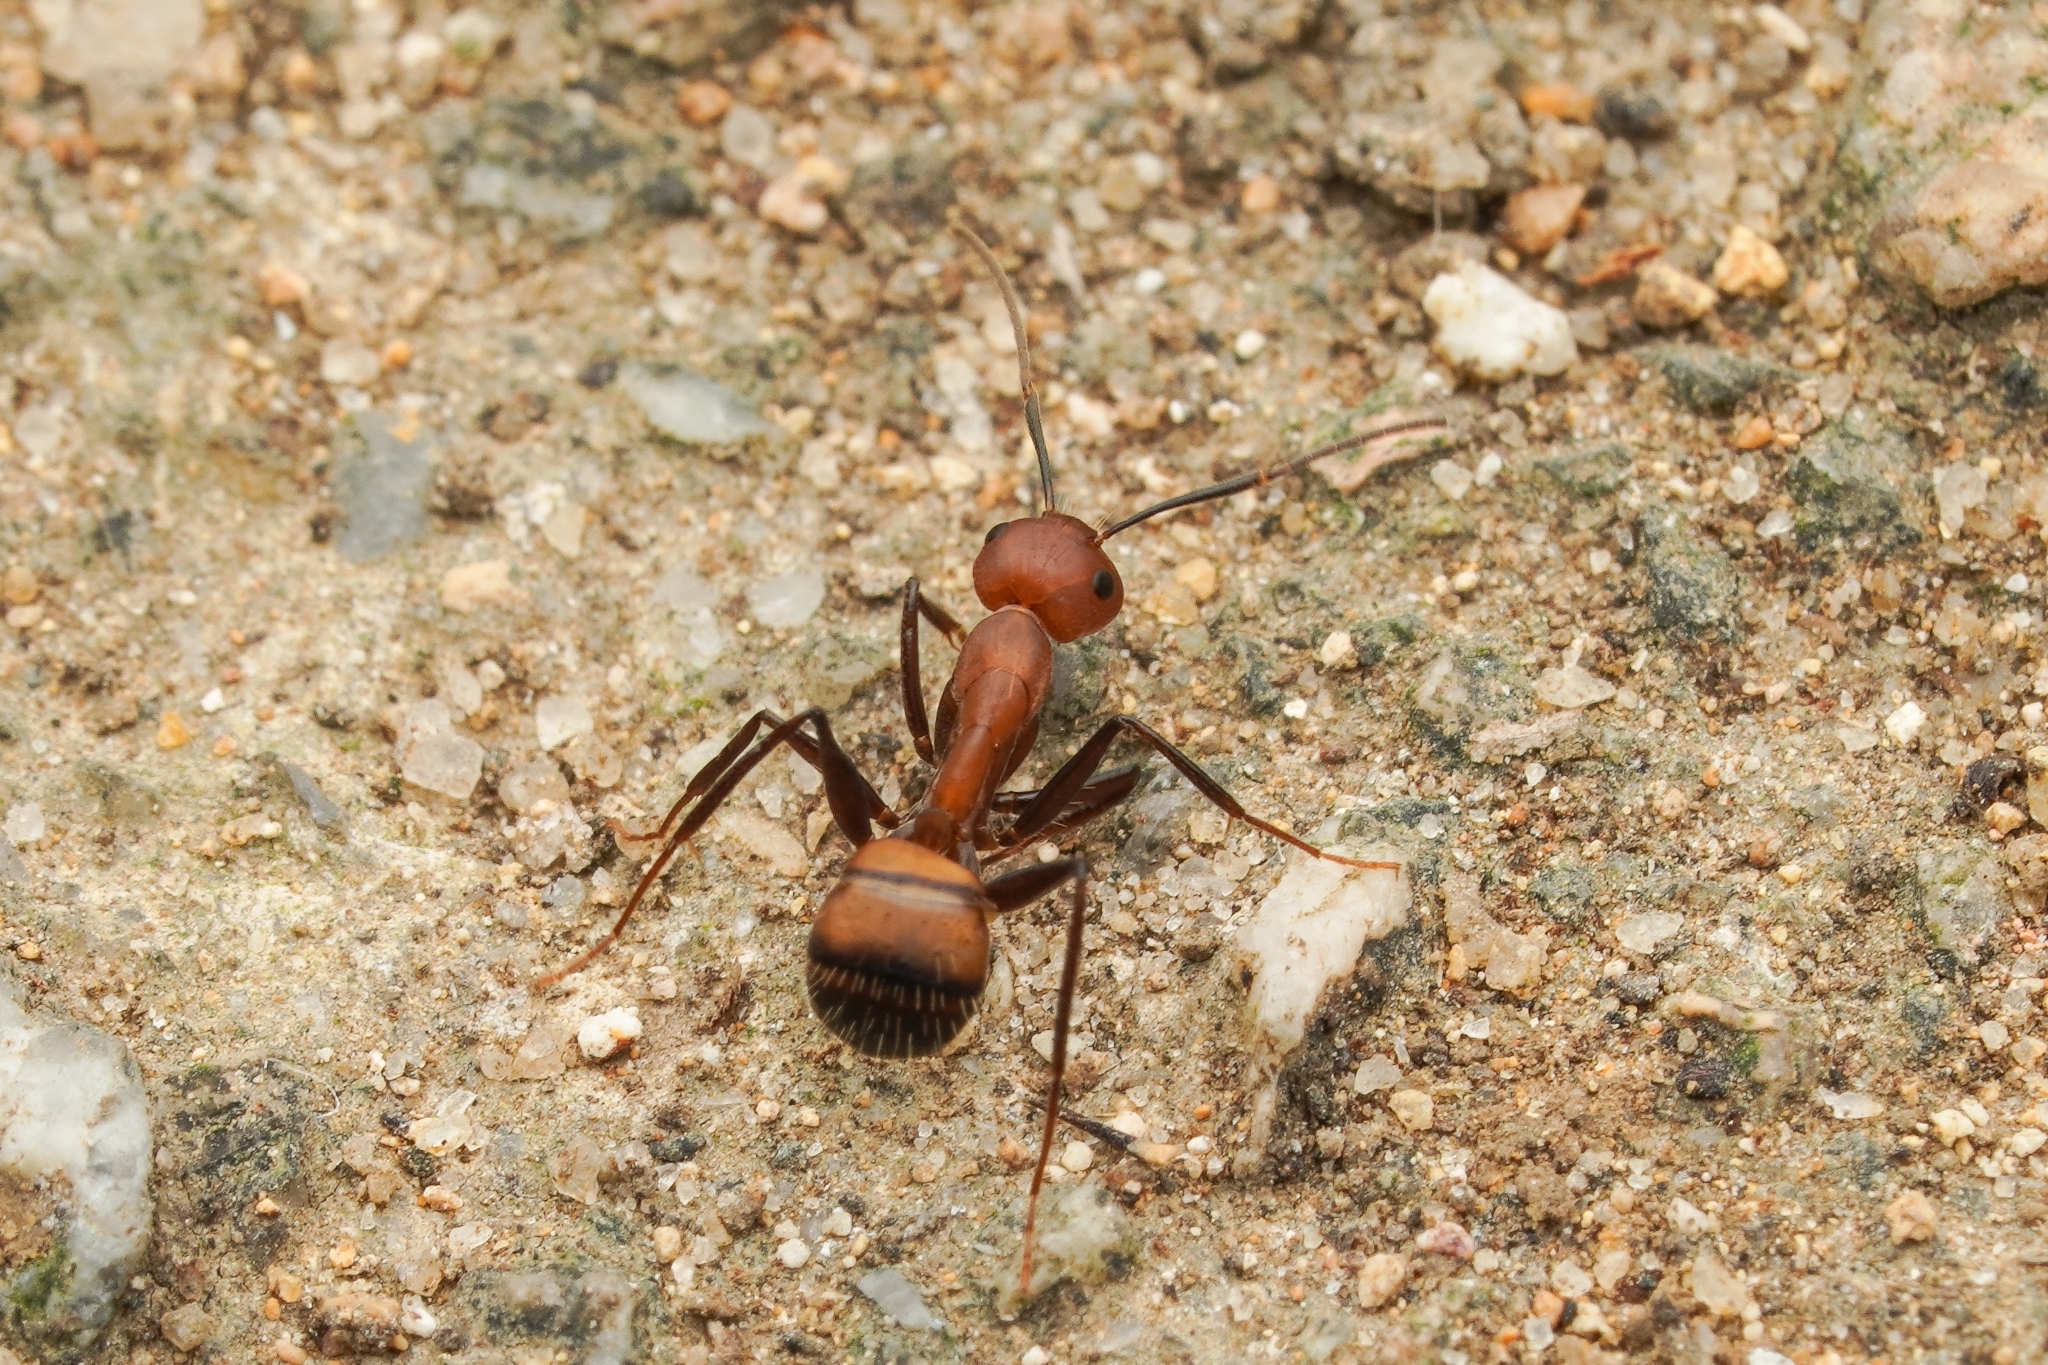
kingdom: Animalia
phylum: Arthropoda
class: Insecta
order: Hymenoptera
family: Formicidae
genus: Camponotus
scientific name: Camponotus nicobarensis
